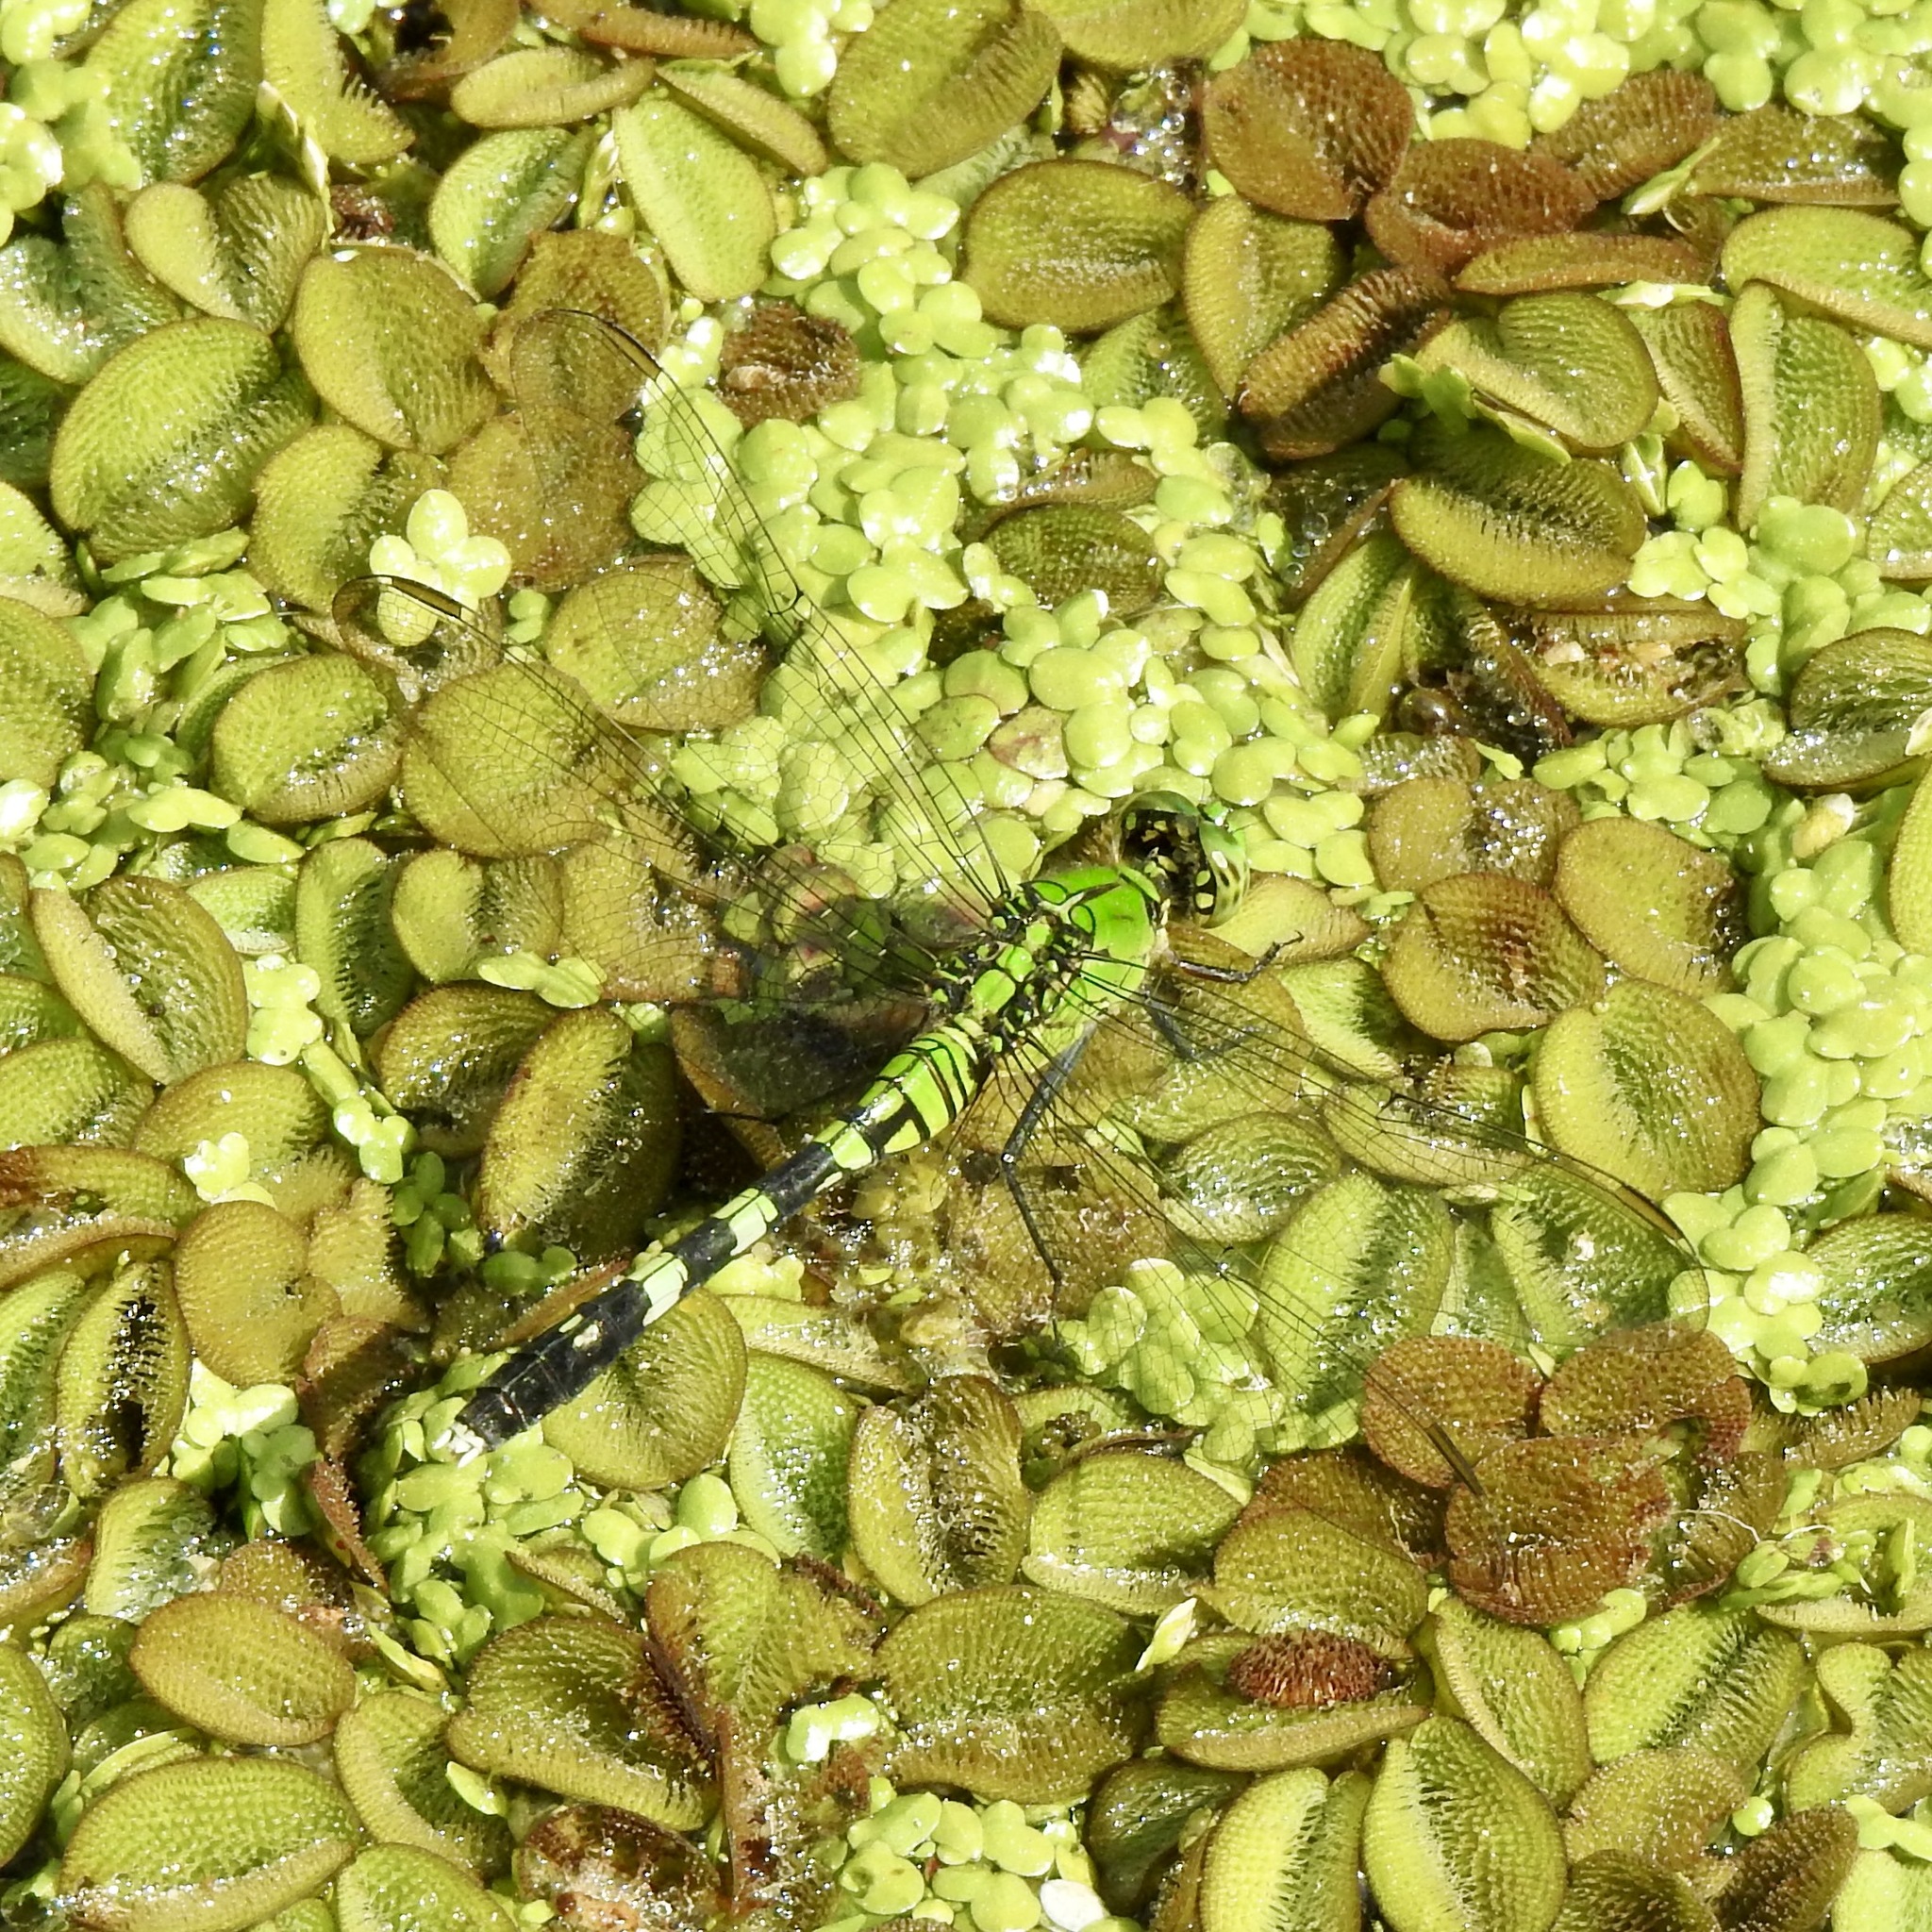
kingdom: Animalia
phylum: Arthropoda
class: Insecta
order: Odonata
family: Libellulidae
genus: Erythemis
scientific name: Erythemis simplicicollis
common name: Eastern pondhawk
